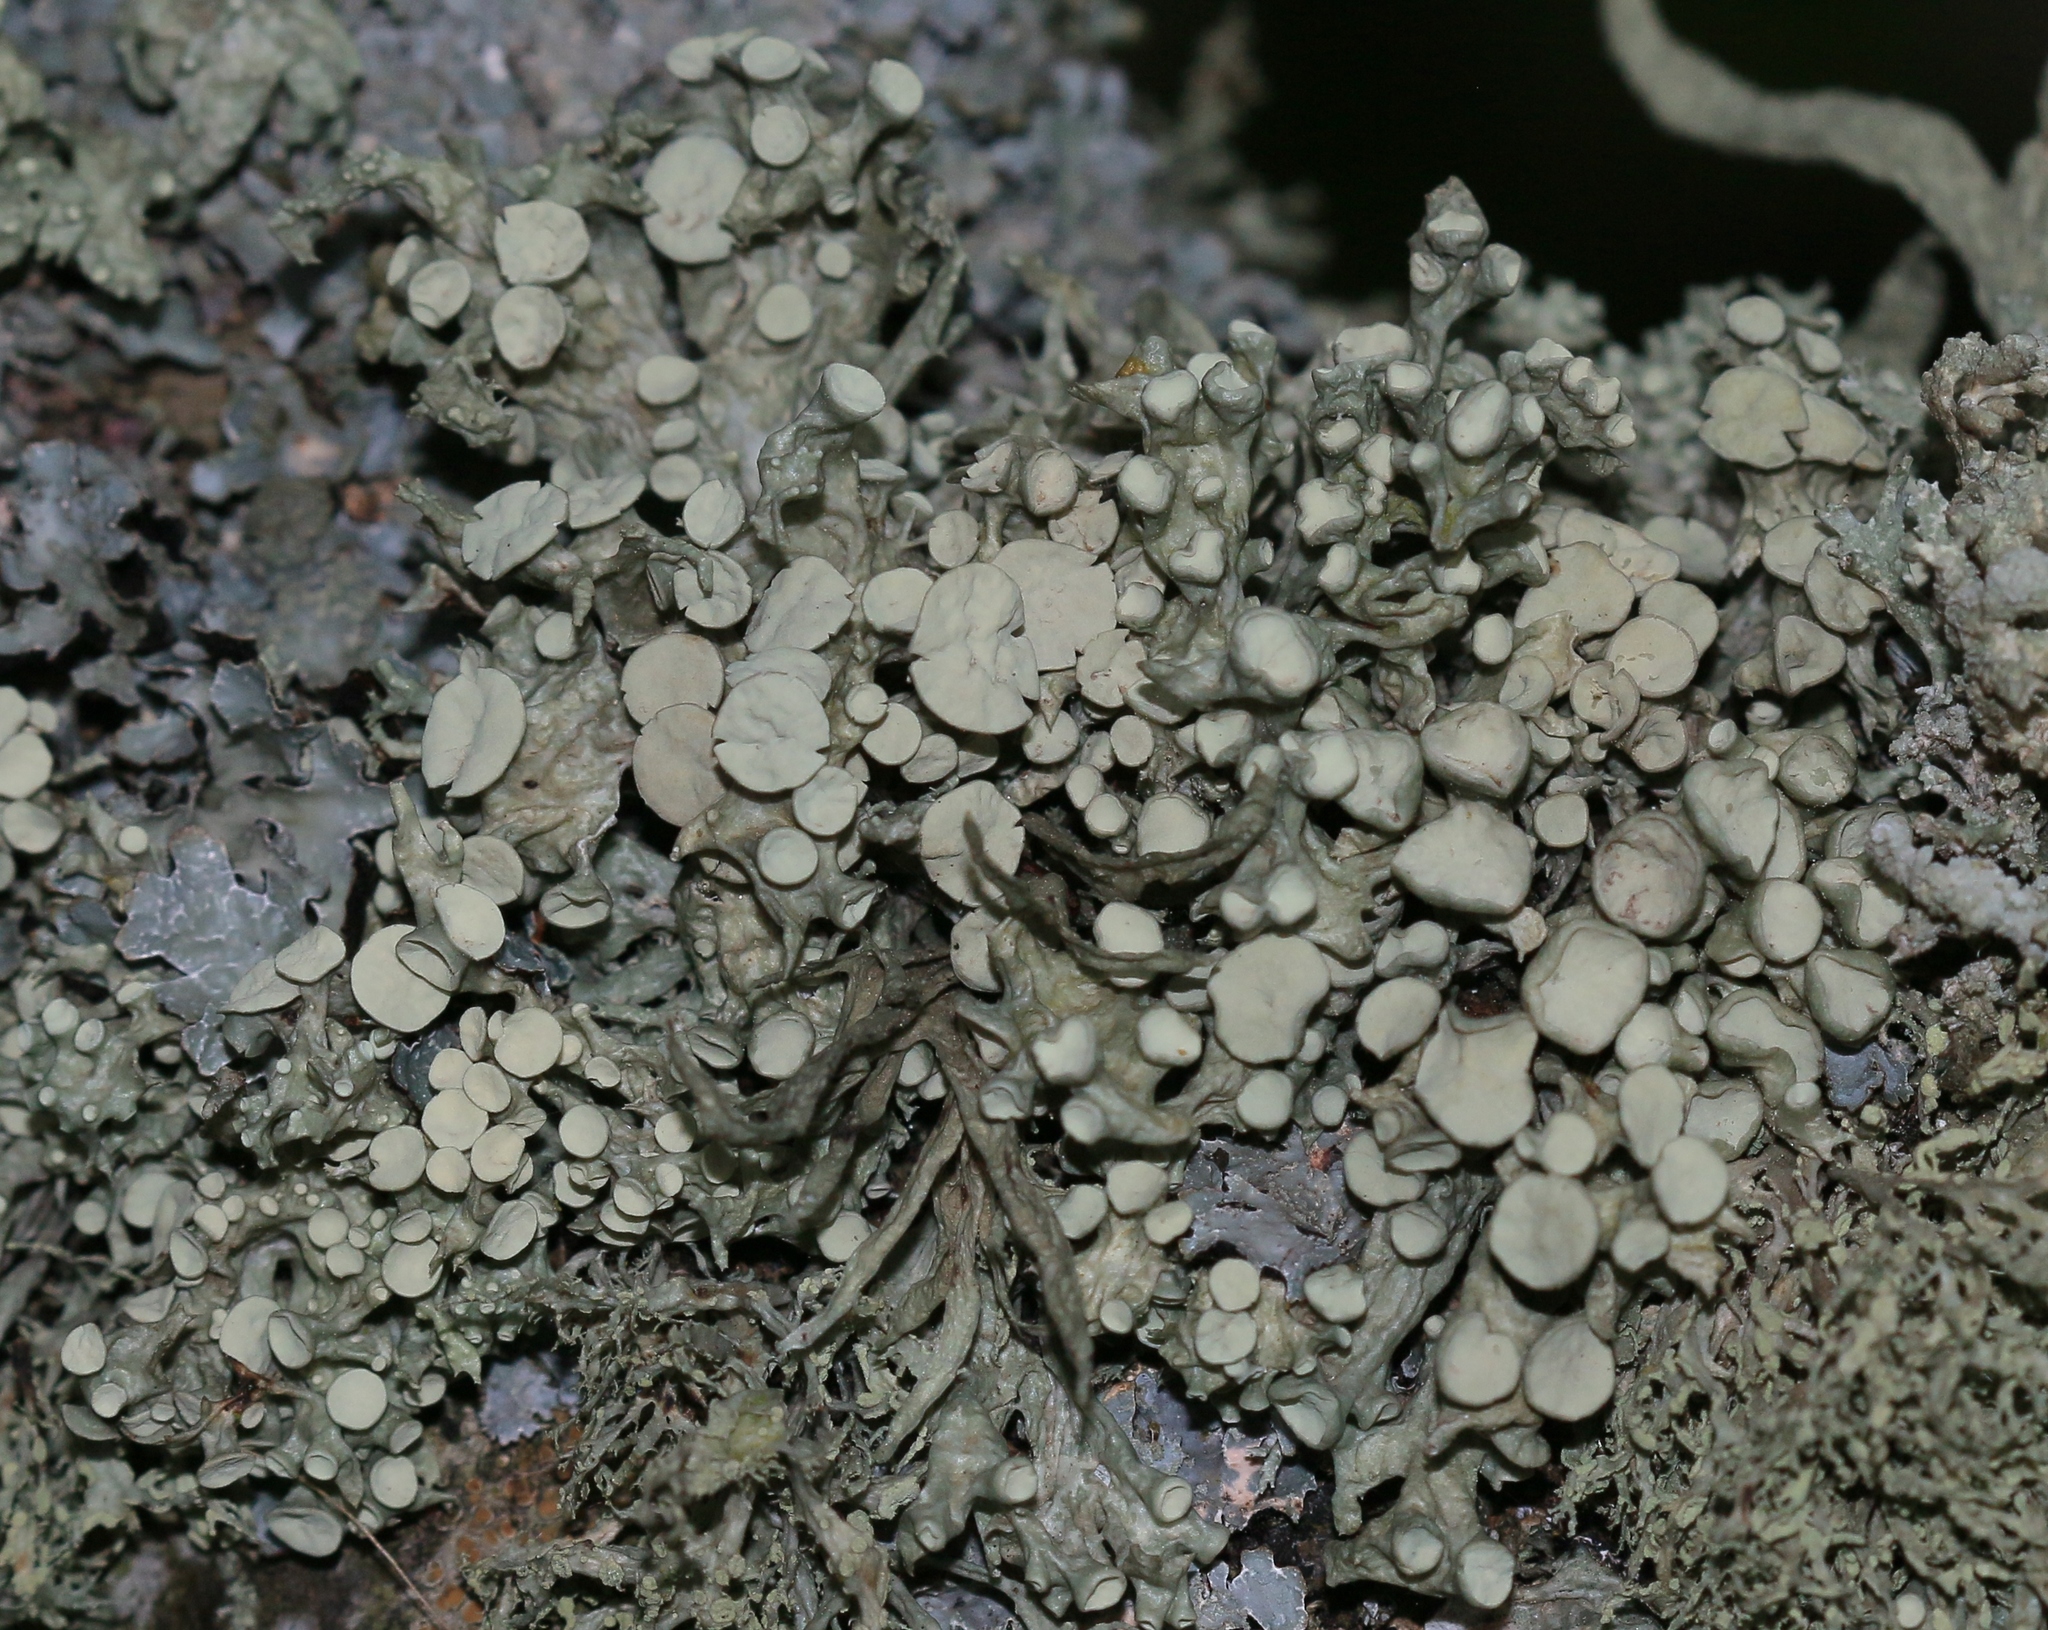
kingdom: Fungi
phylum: Ascomycota
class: Lecanoromycetes
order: Lecanorales
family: Ramalinaceae
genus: Ramalina
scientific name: Ramalina fastigiata
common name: Dotted ribbon lichen
